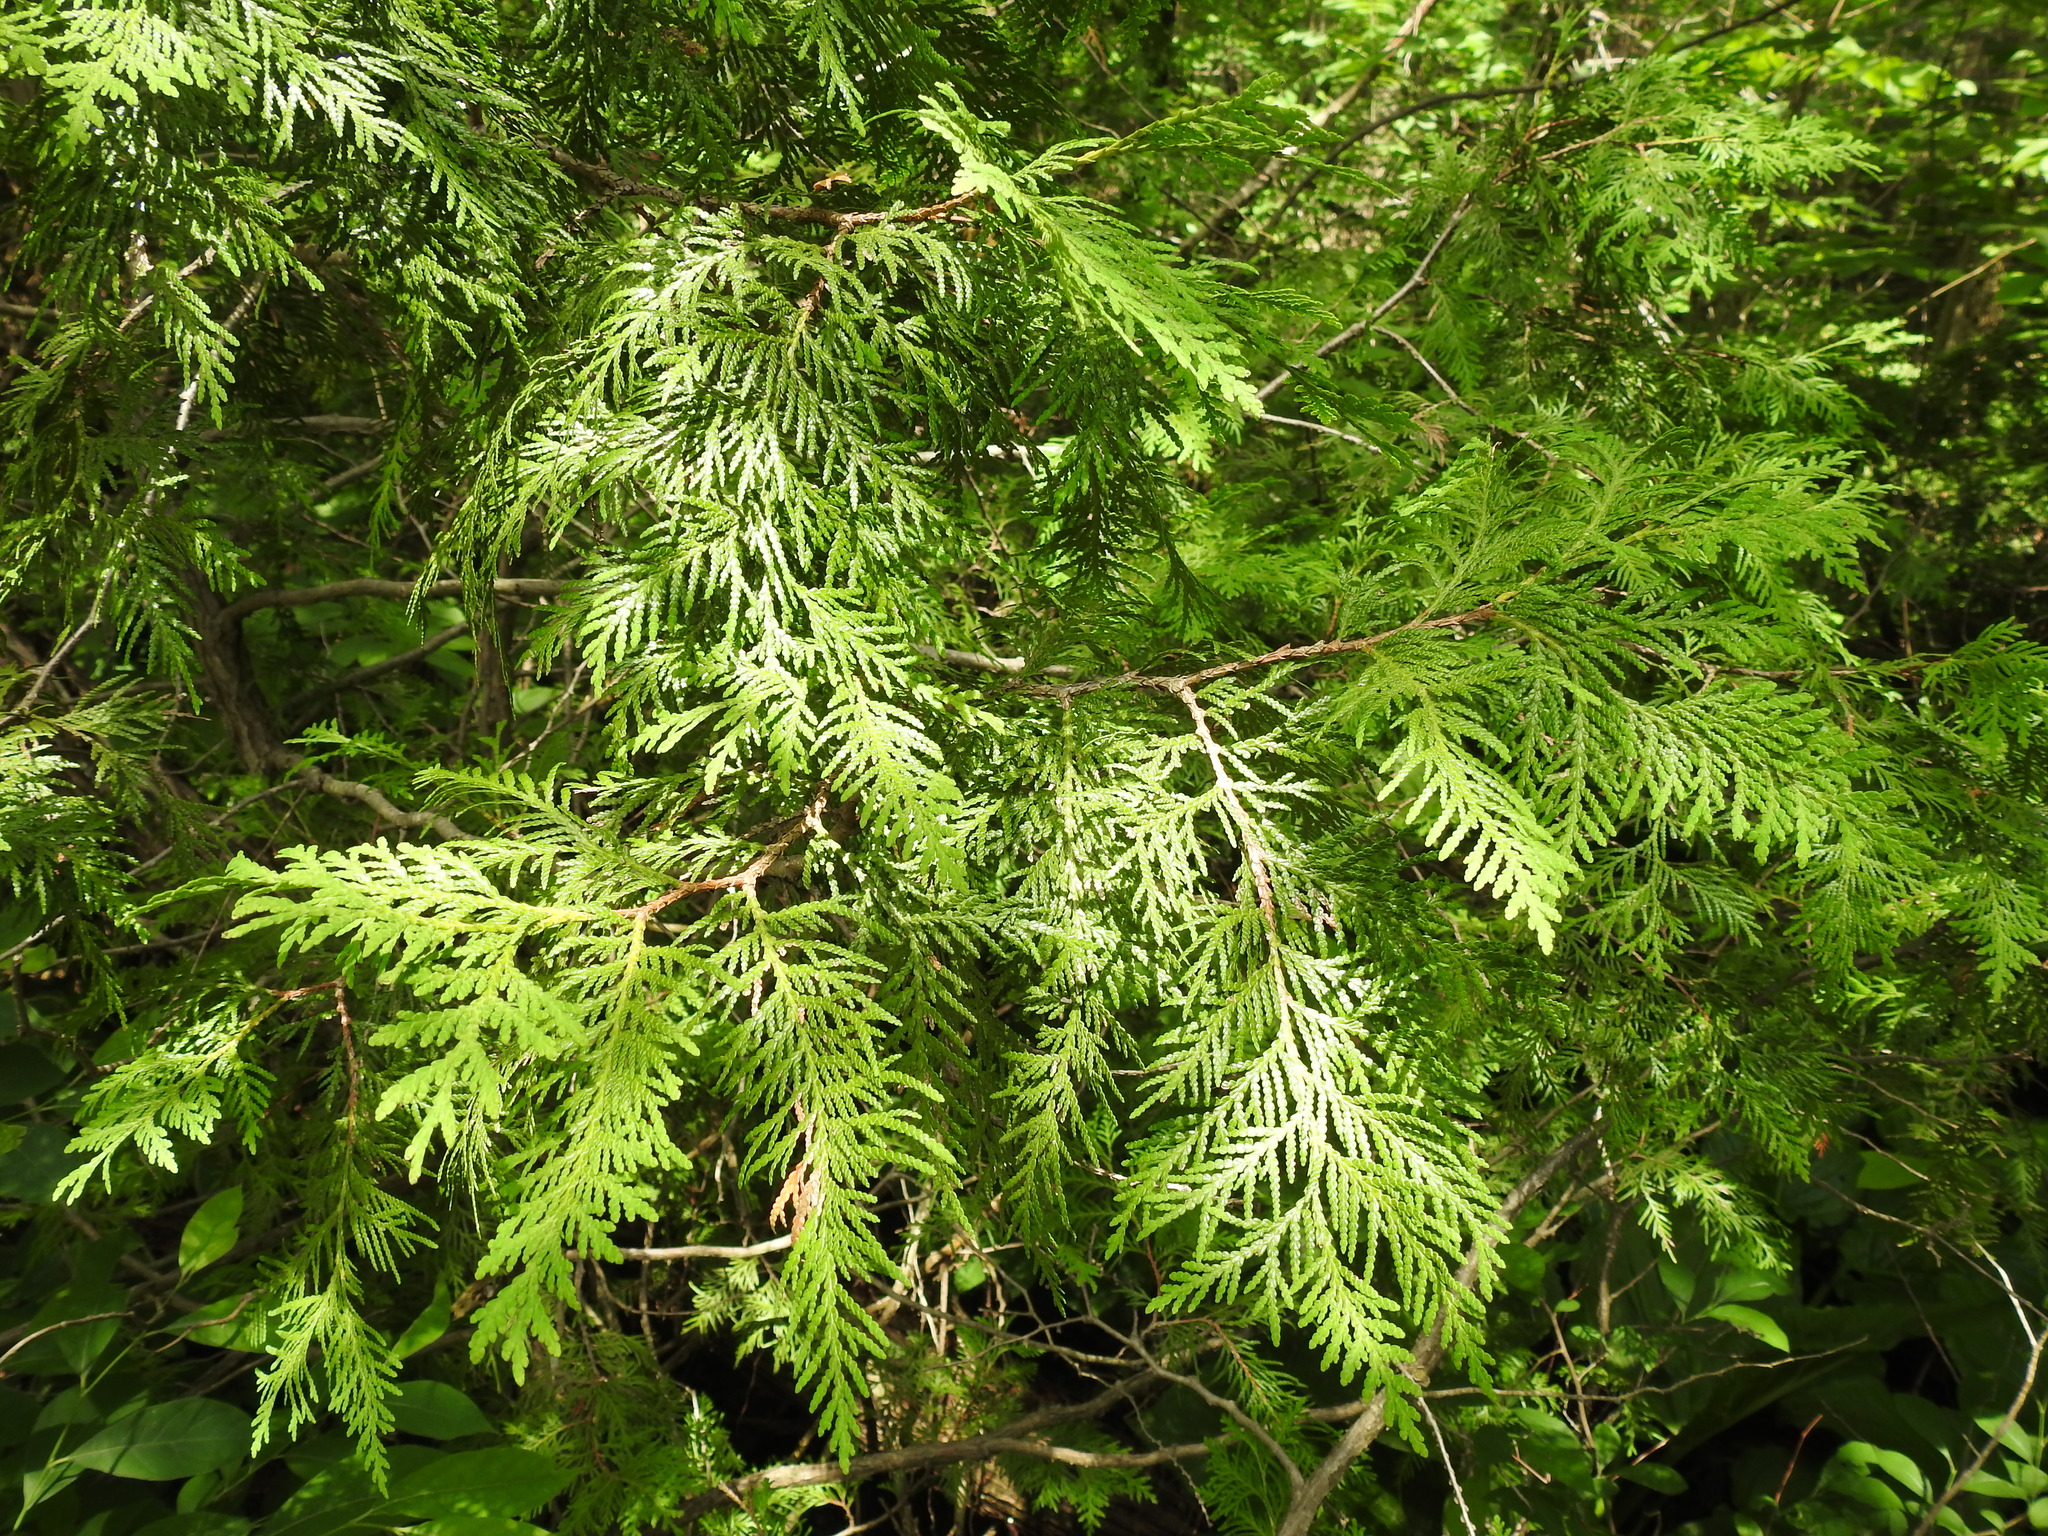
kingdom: Plantae
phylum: Tracheophyta
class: Pinopsida
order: Pinales
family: Cupressaceae
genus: Thuja
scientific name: Thuja occidentalis
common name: Northern white-cedar
